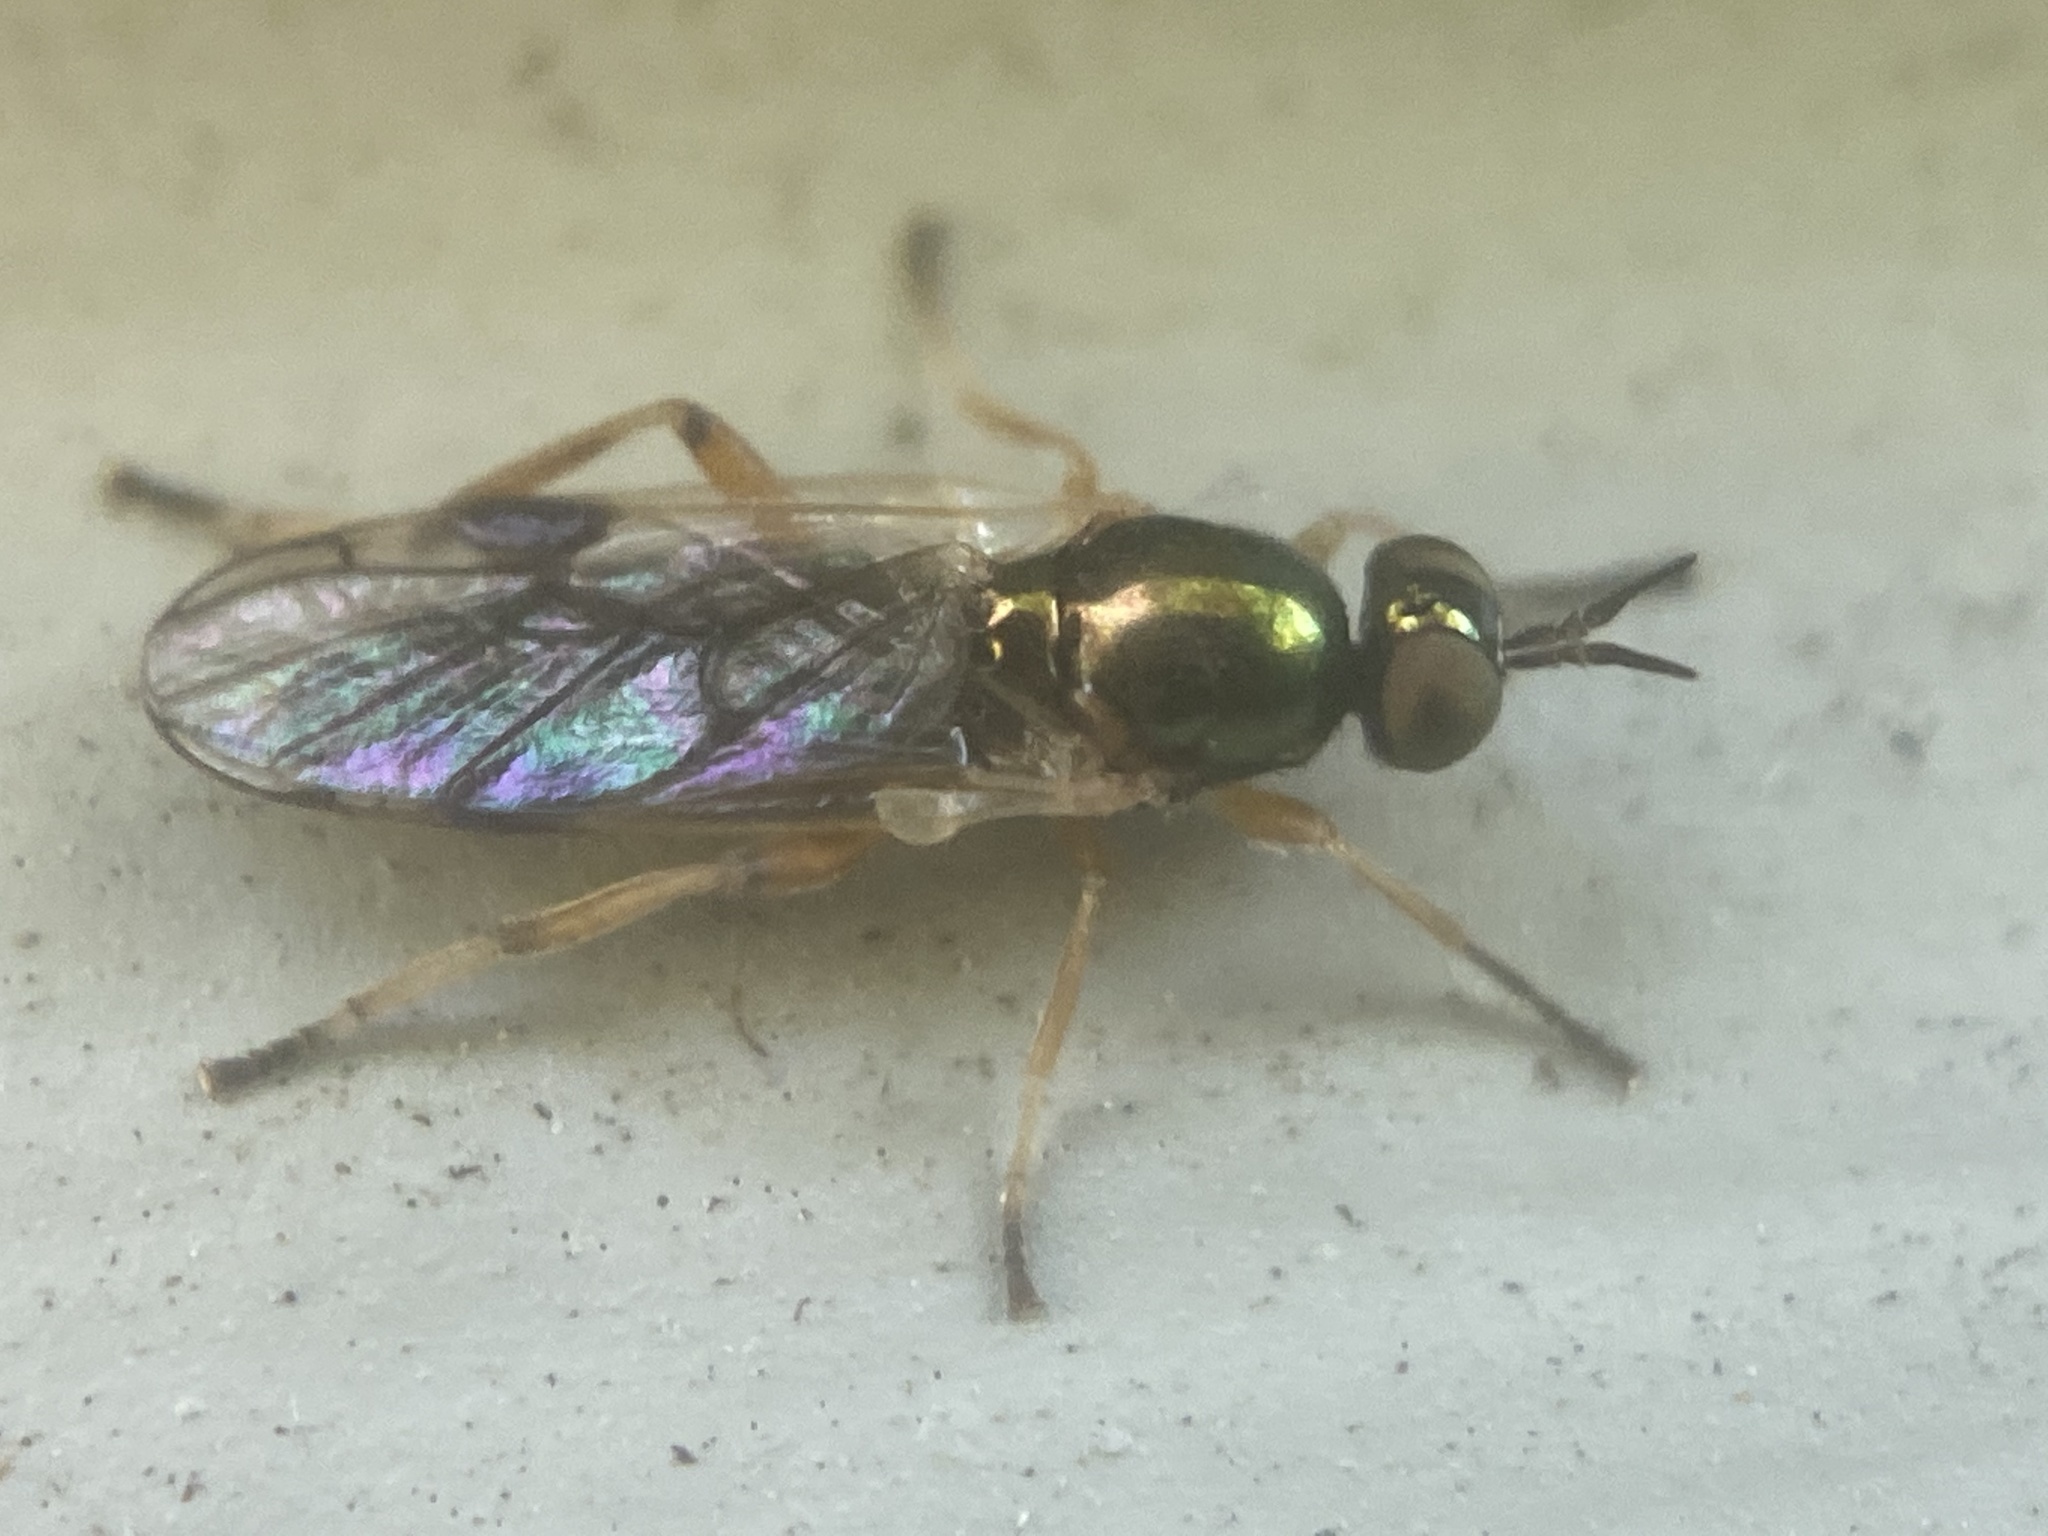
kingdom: Animalia
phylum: Arthropoda
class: Insecta
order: Diptera
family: Stratiomyidae
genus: Actina
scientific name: Actina viridis
